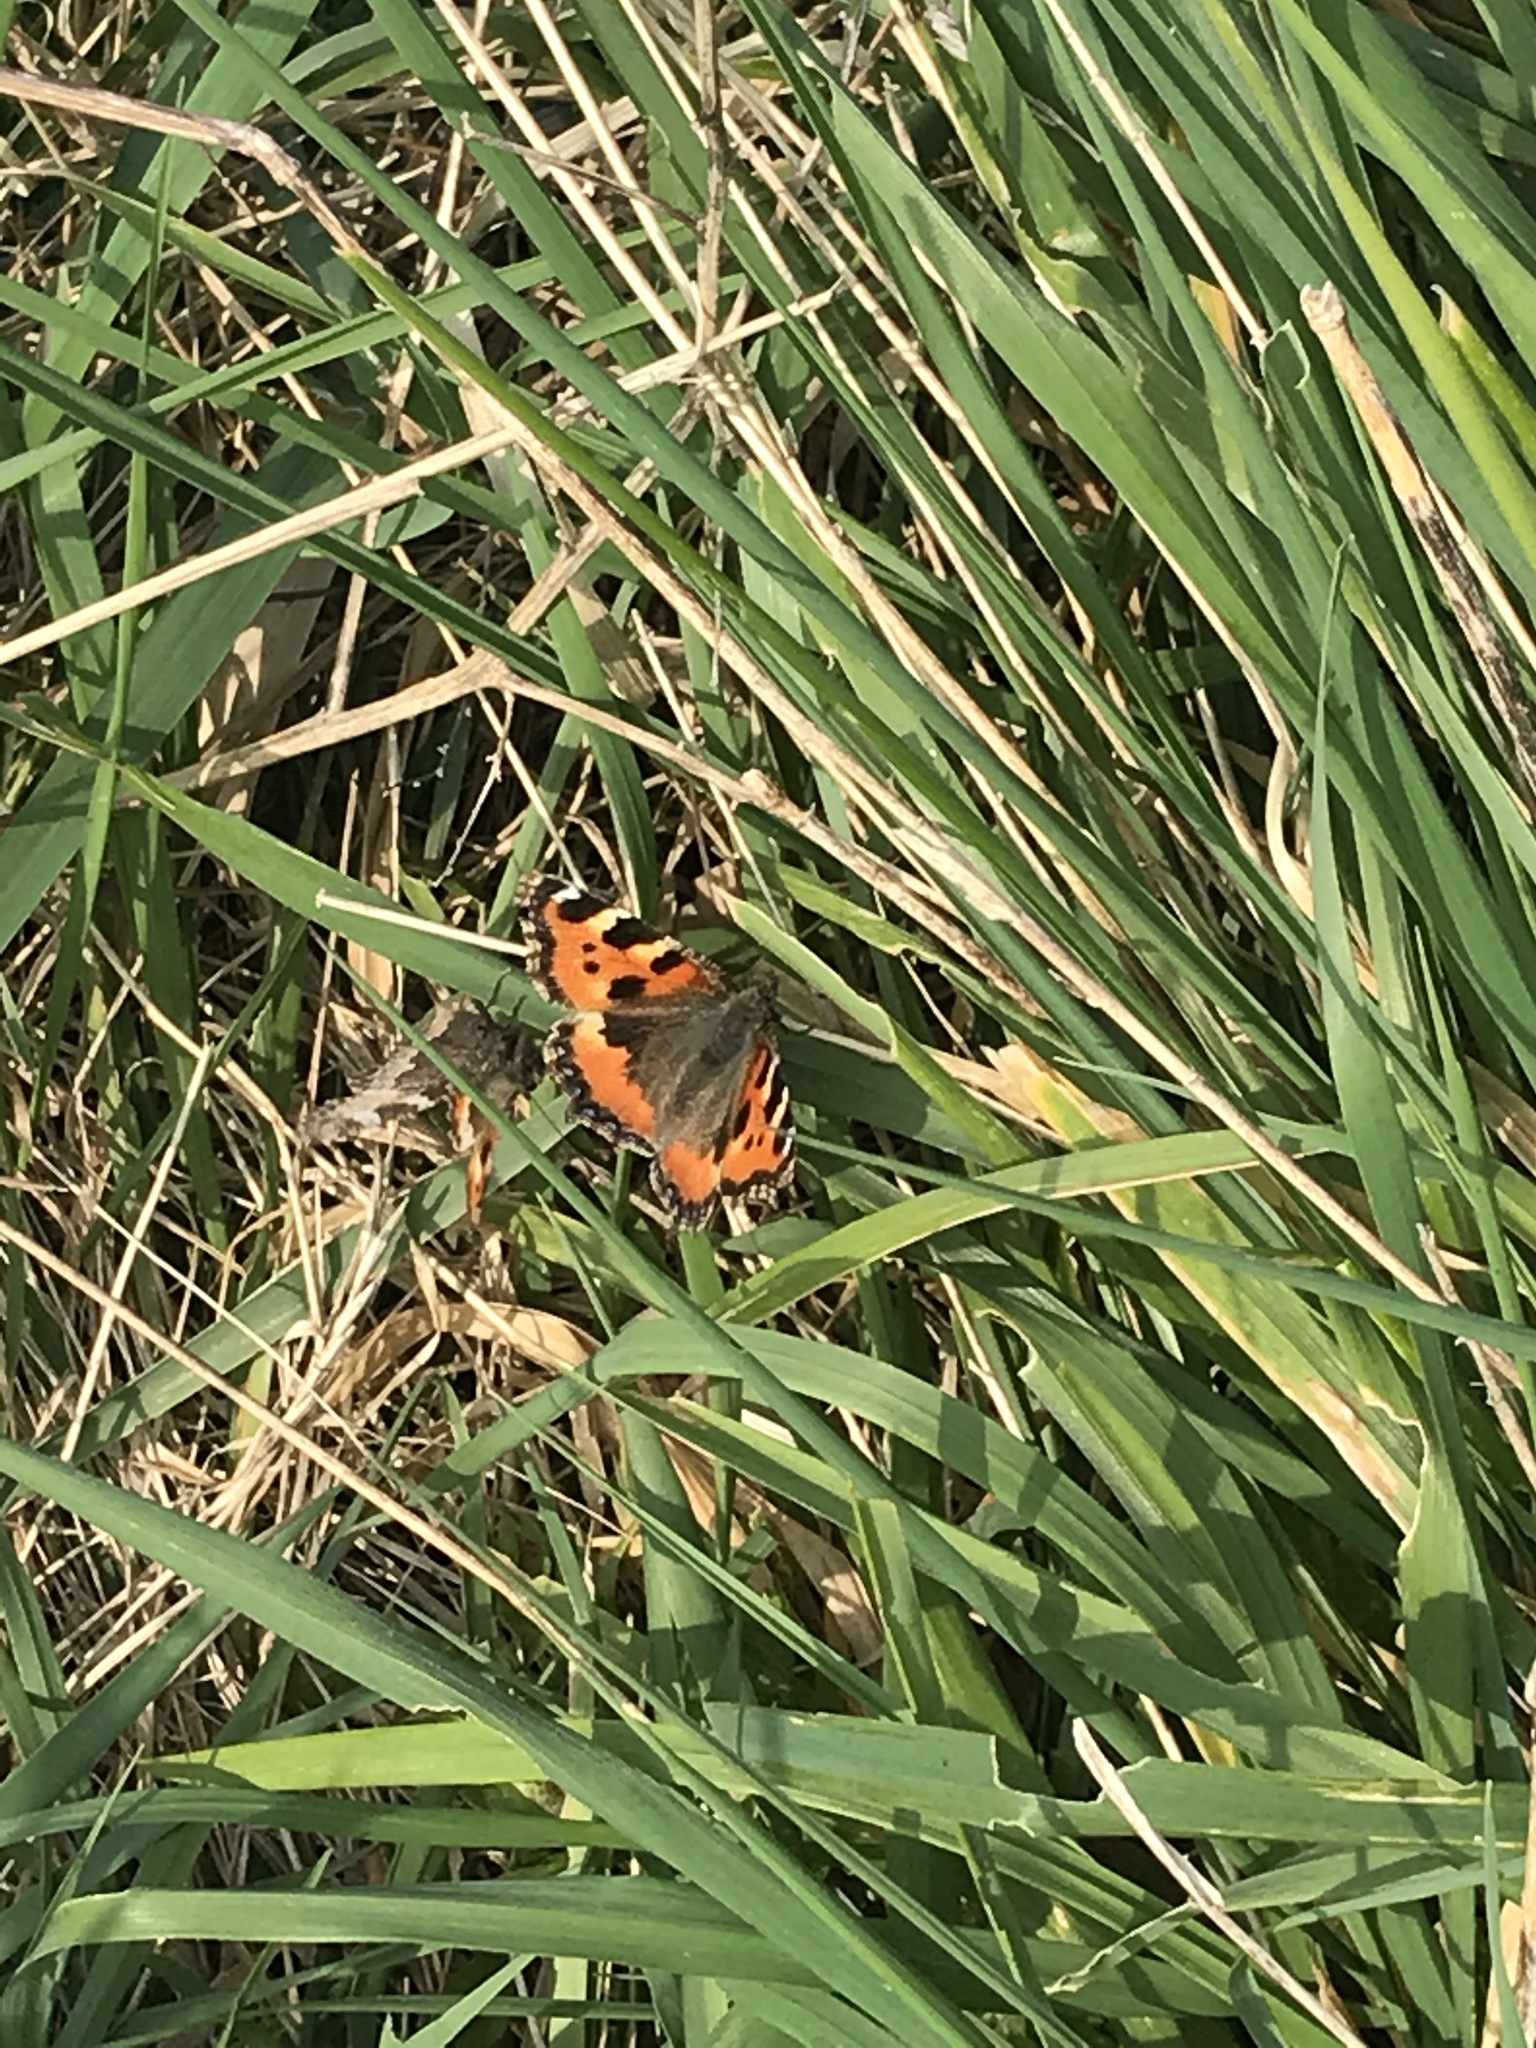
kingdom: Animalia
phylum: Arthropoda
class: Insecta
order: Lepidoptera
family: Nymphalidae
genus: Aglais
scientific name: Aglais urticae
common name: Small tortoiseshell
